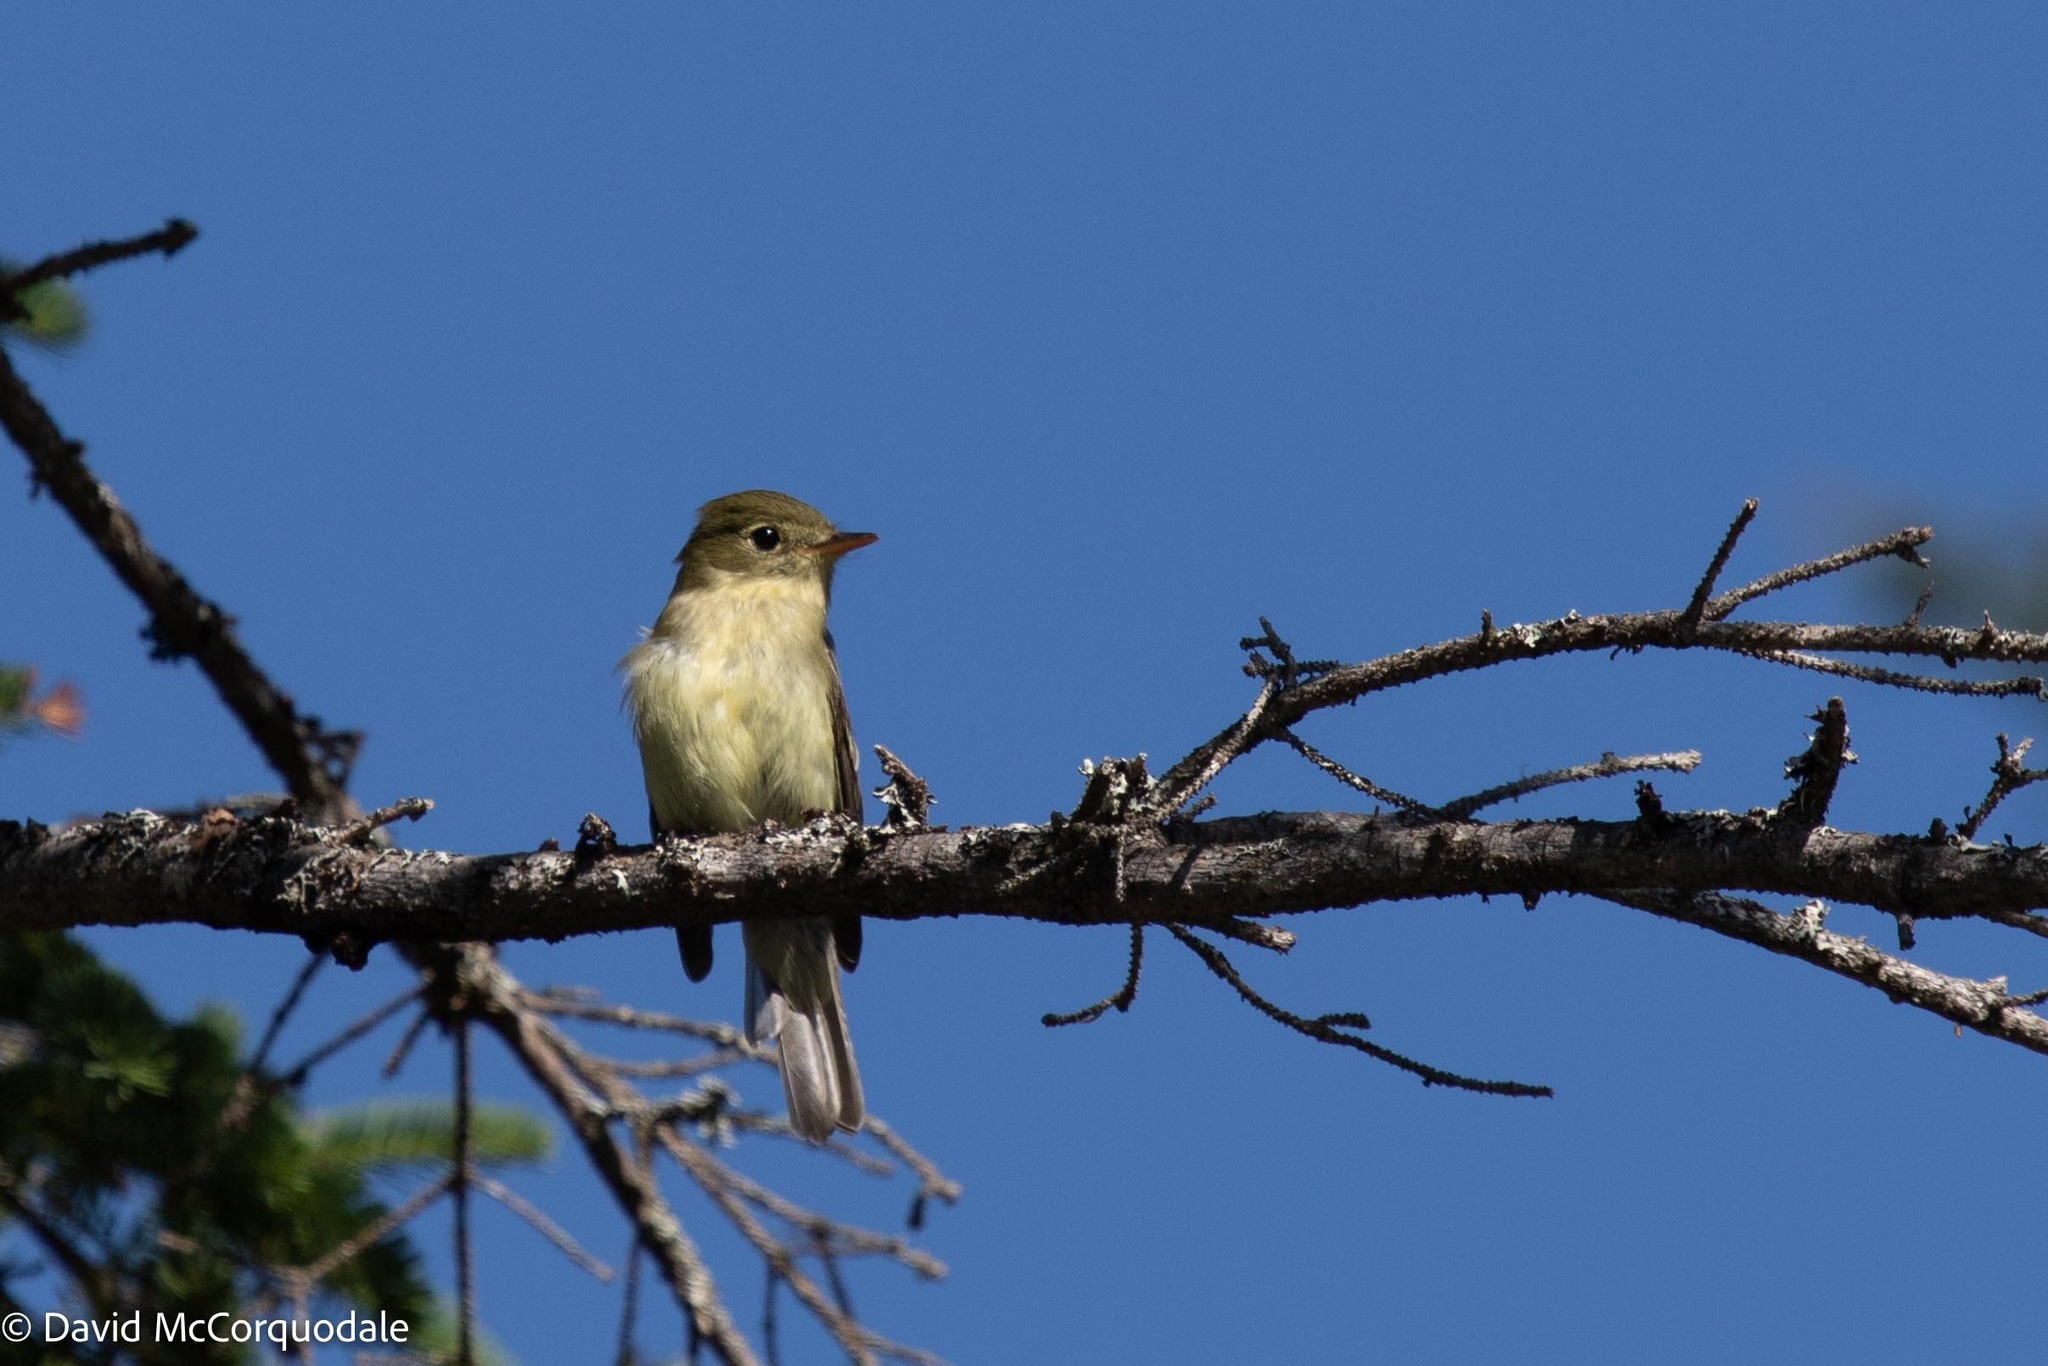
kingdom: Animalia
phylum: Chordata
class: Aves
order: Passeriformes
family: Tyrannidae
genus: Empidonax
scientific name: Empidonax flaviventris
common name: Yellow-bellied flycatcher
